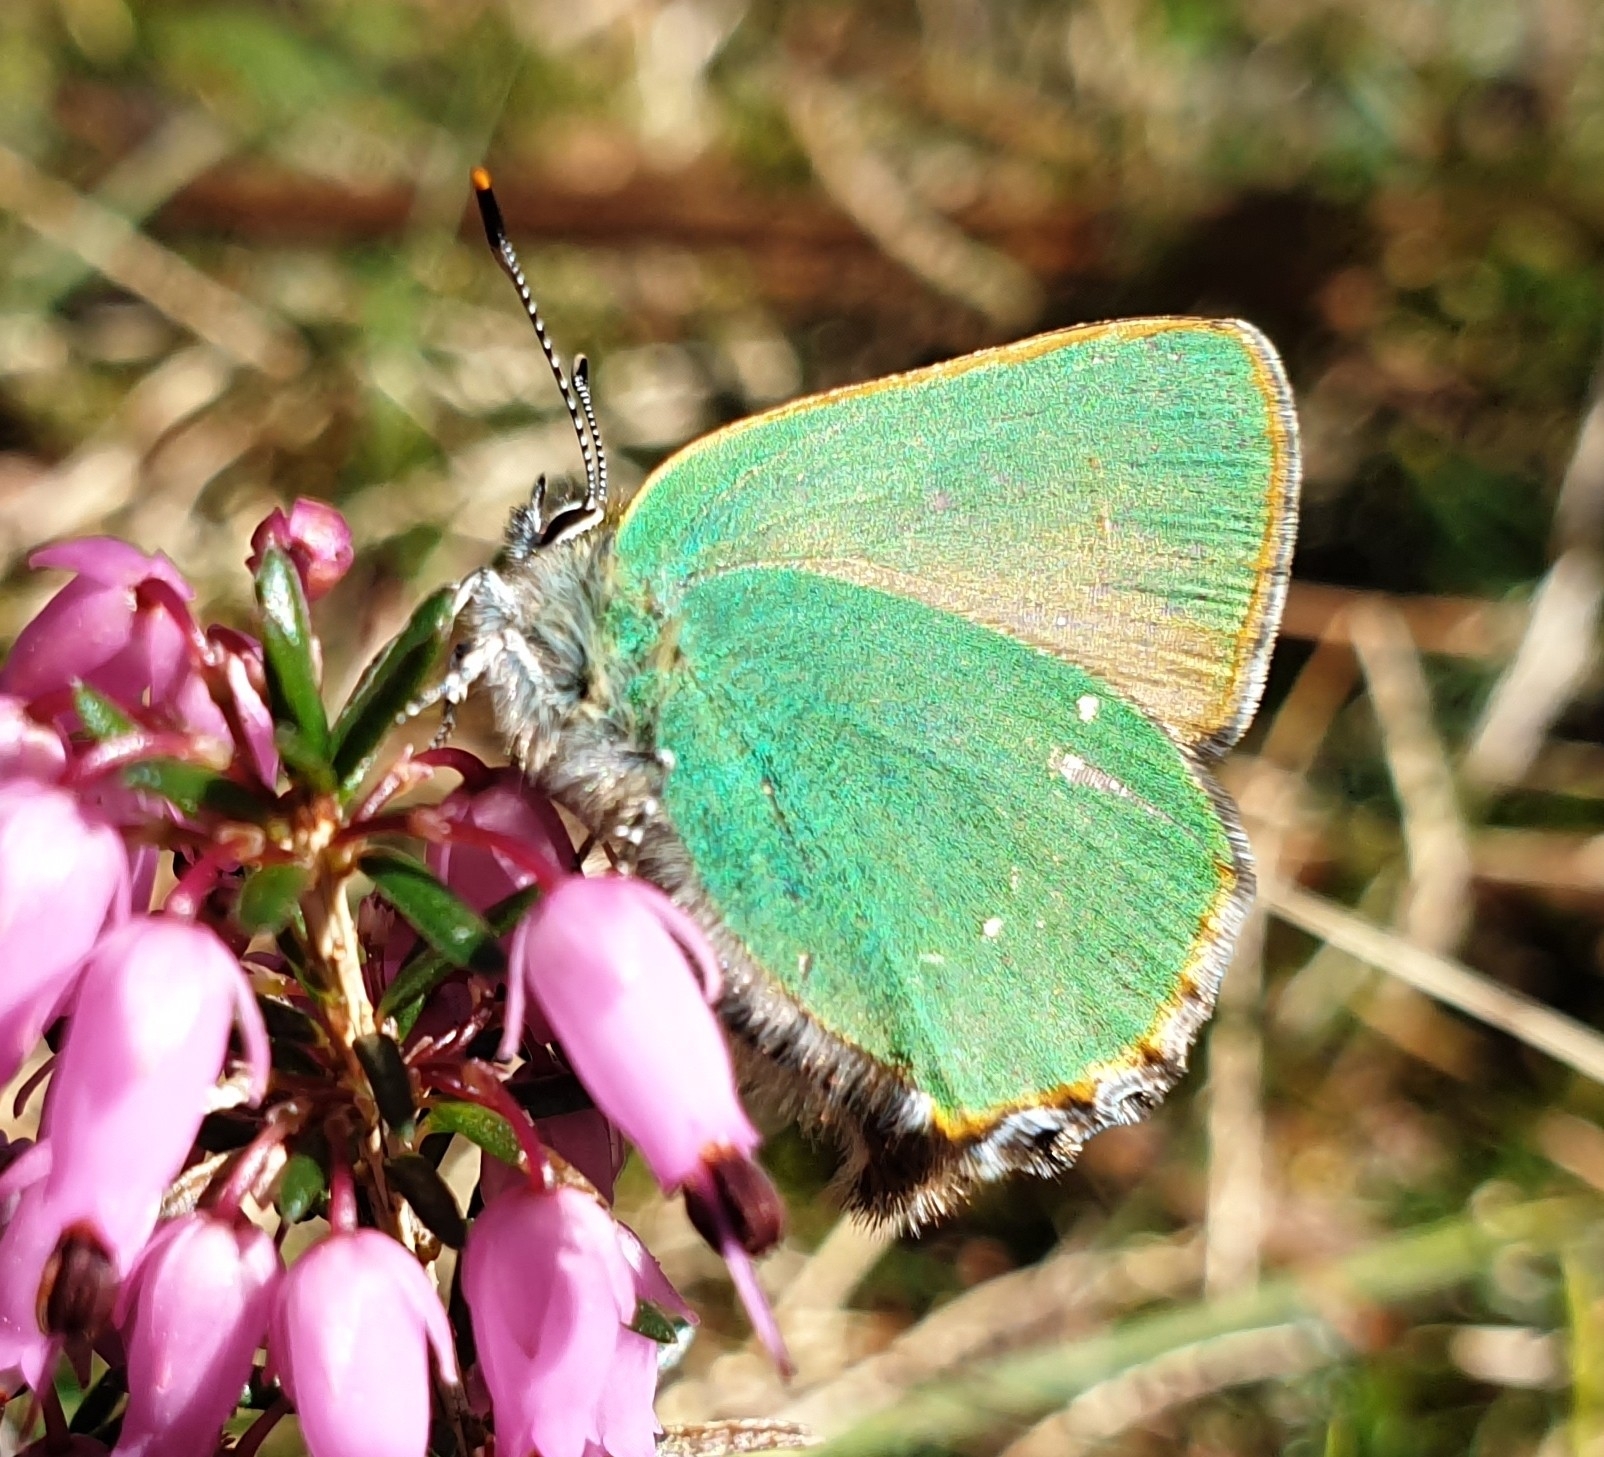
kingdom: Animalia
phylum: Arthropoda
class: Insecta
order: Lepidoptera
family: Lycaenidae
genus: Callophrys
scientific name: Callophrys rubi
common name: Green hairstreak
